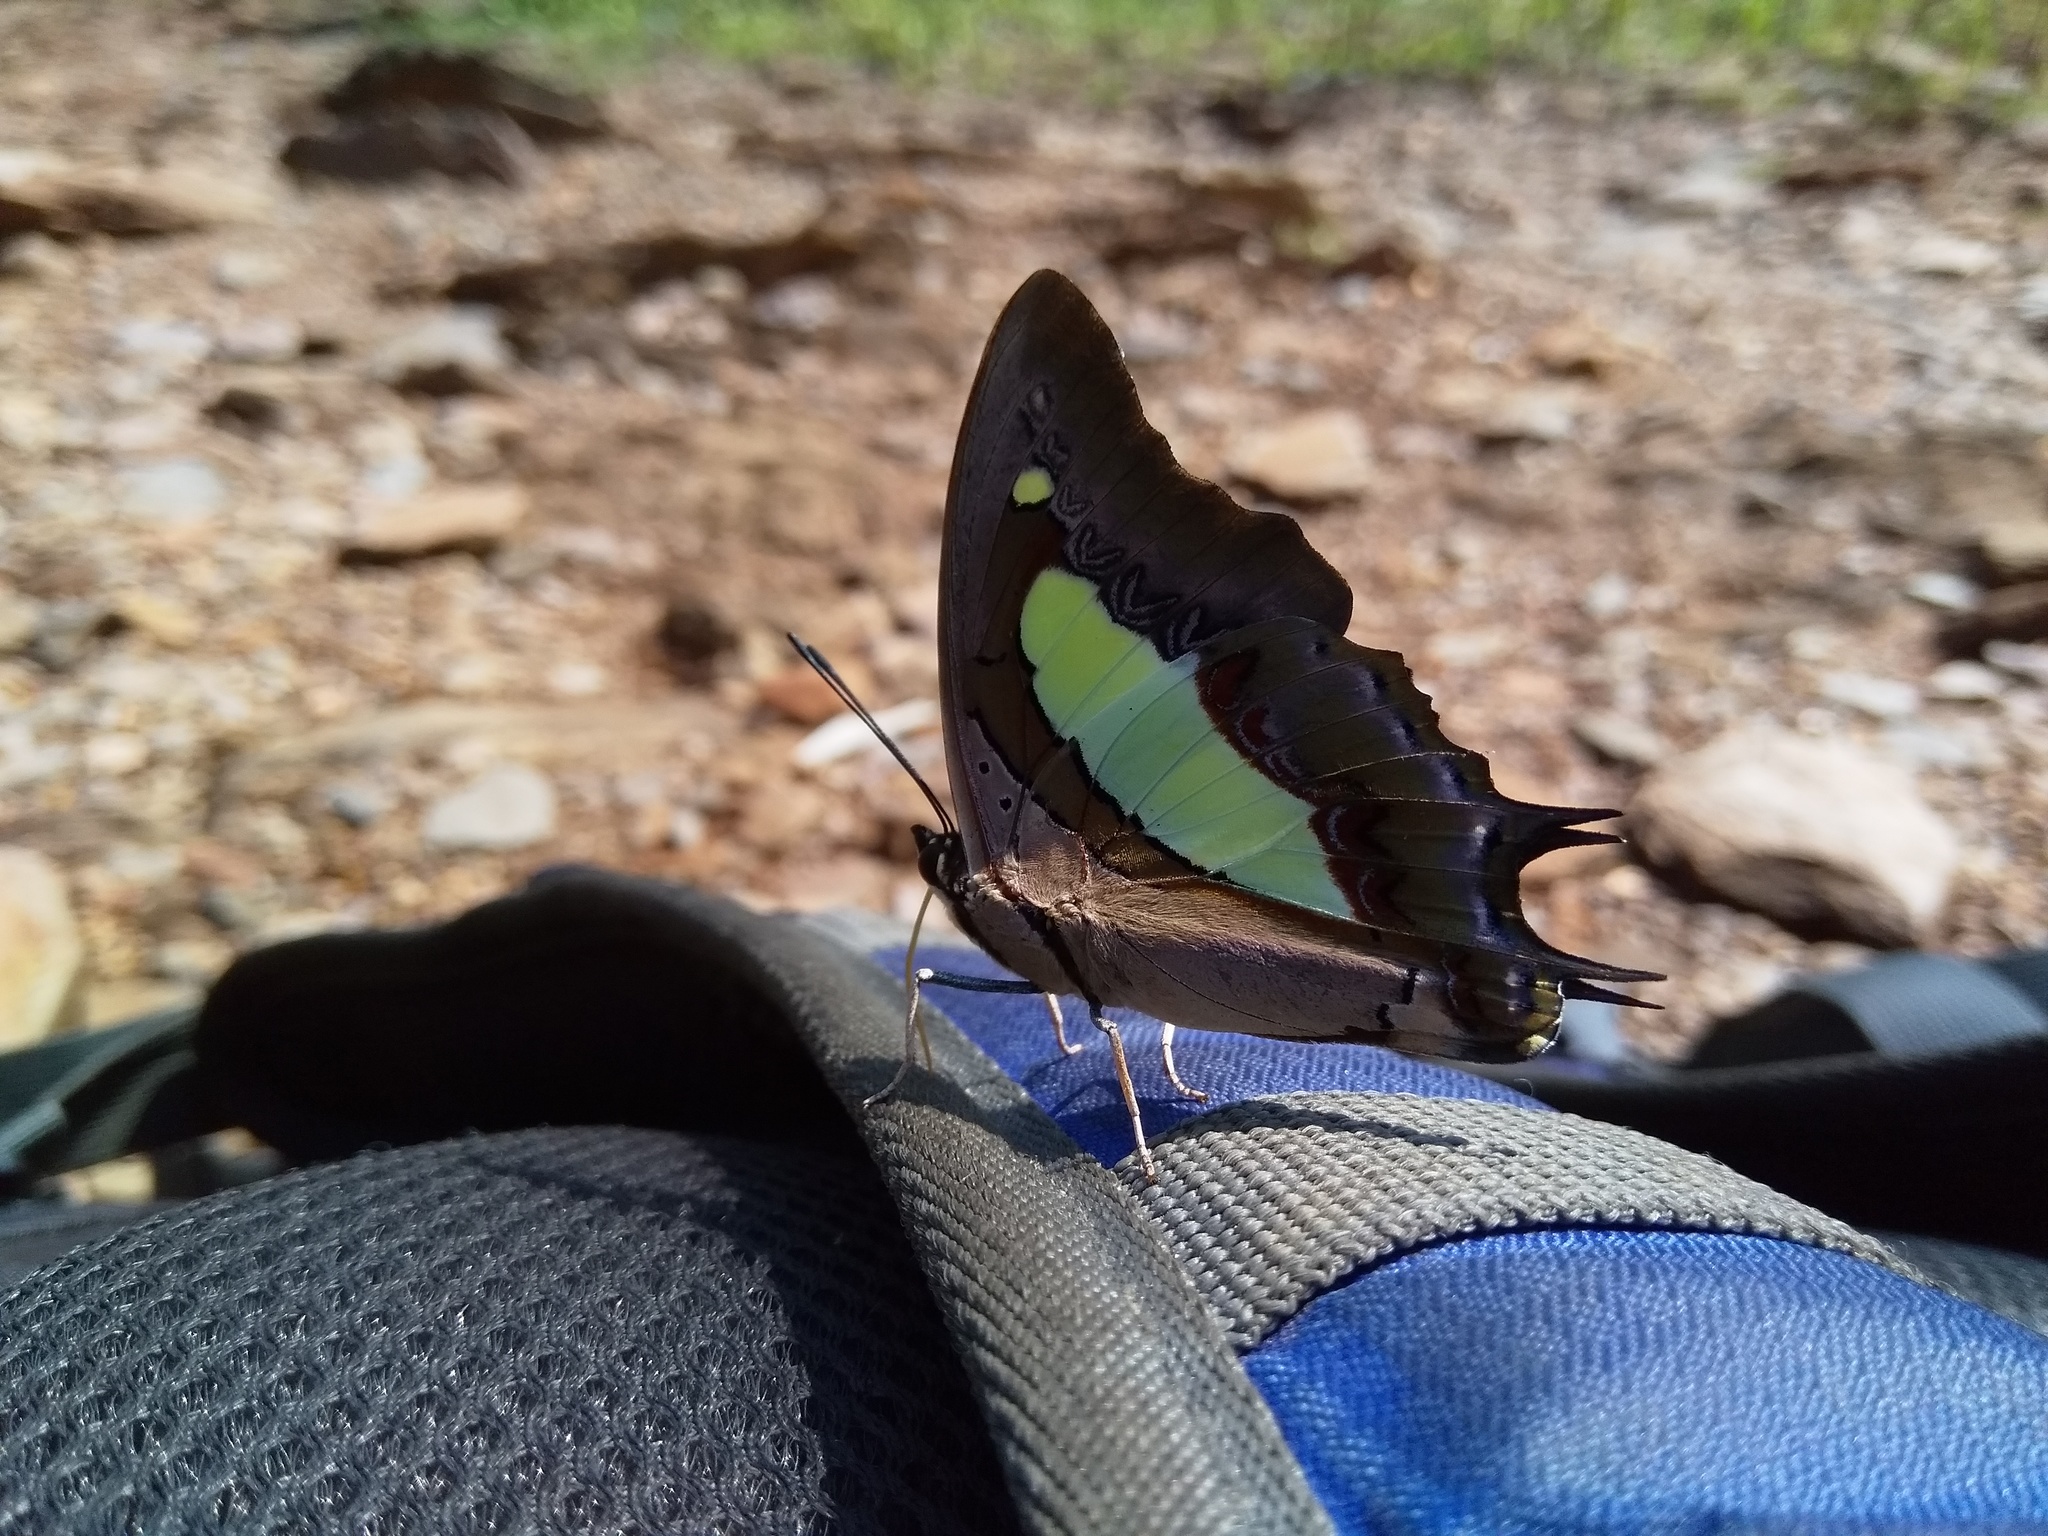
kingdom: Animalia
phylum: Arthropoda
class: Insecta
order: Lepidoptera
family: Nymphalidae
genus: Polyura
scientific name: Polyura
